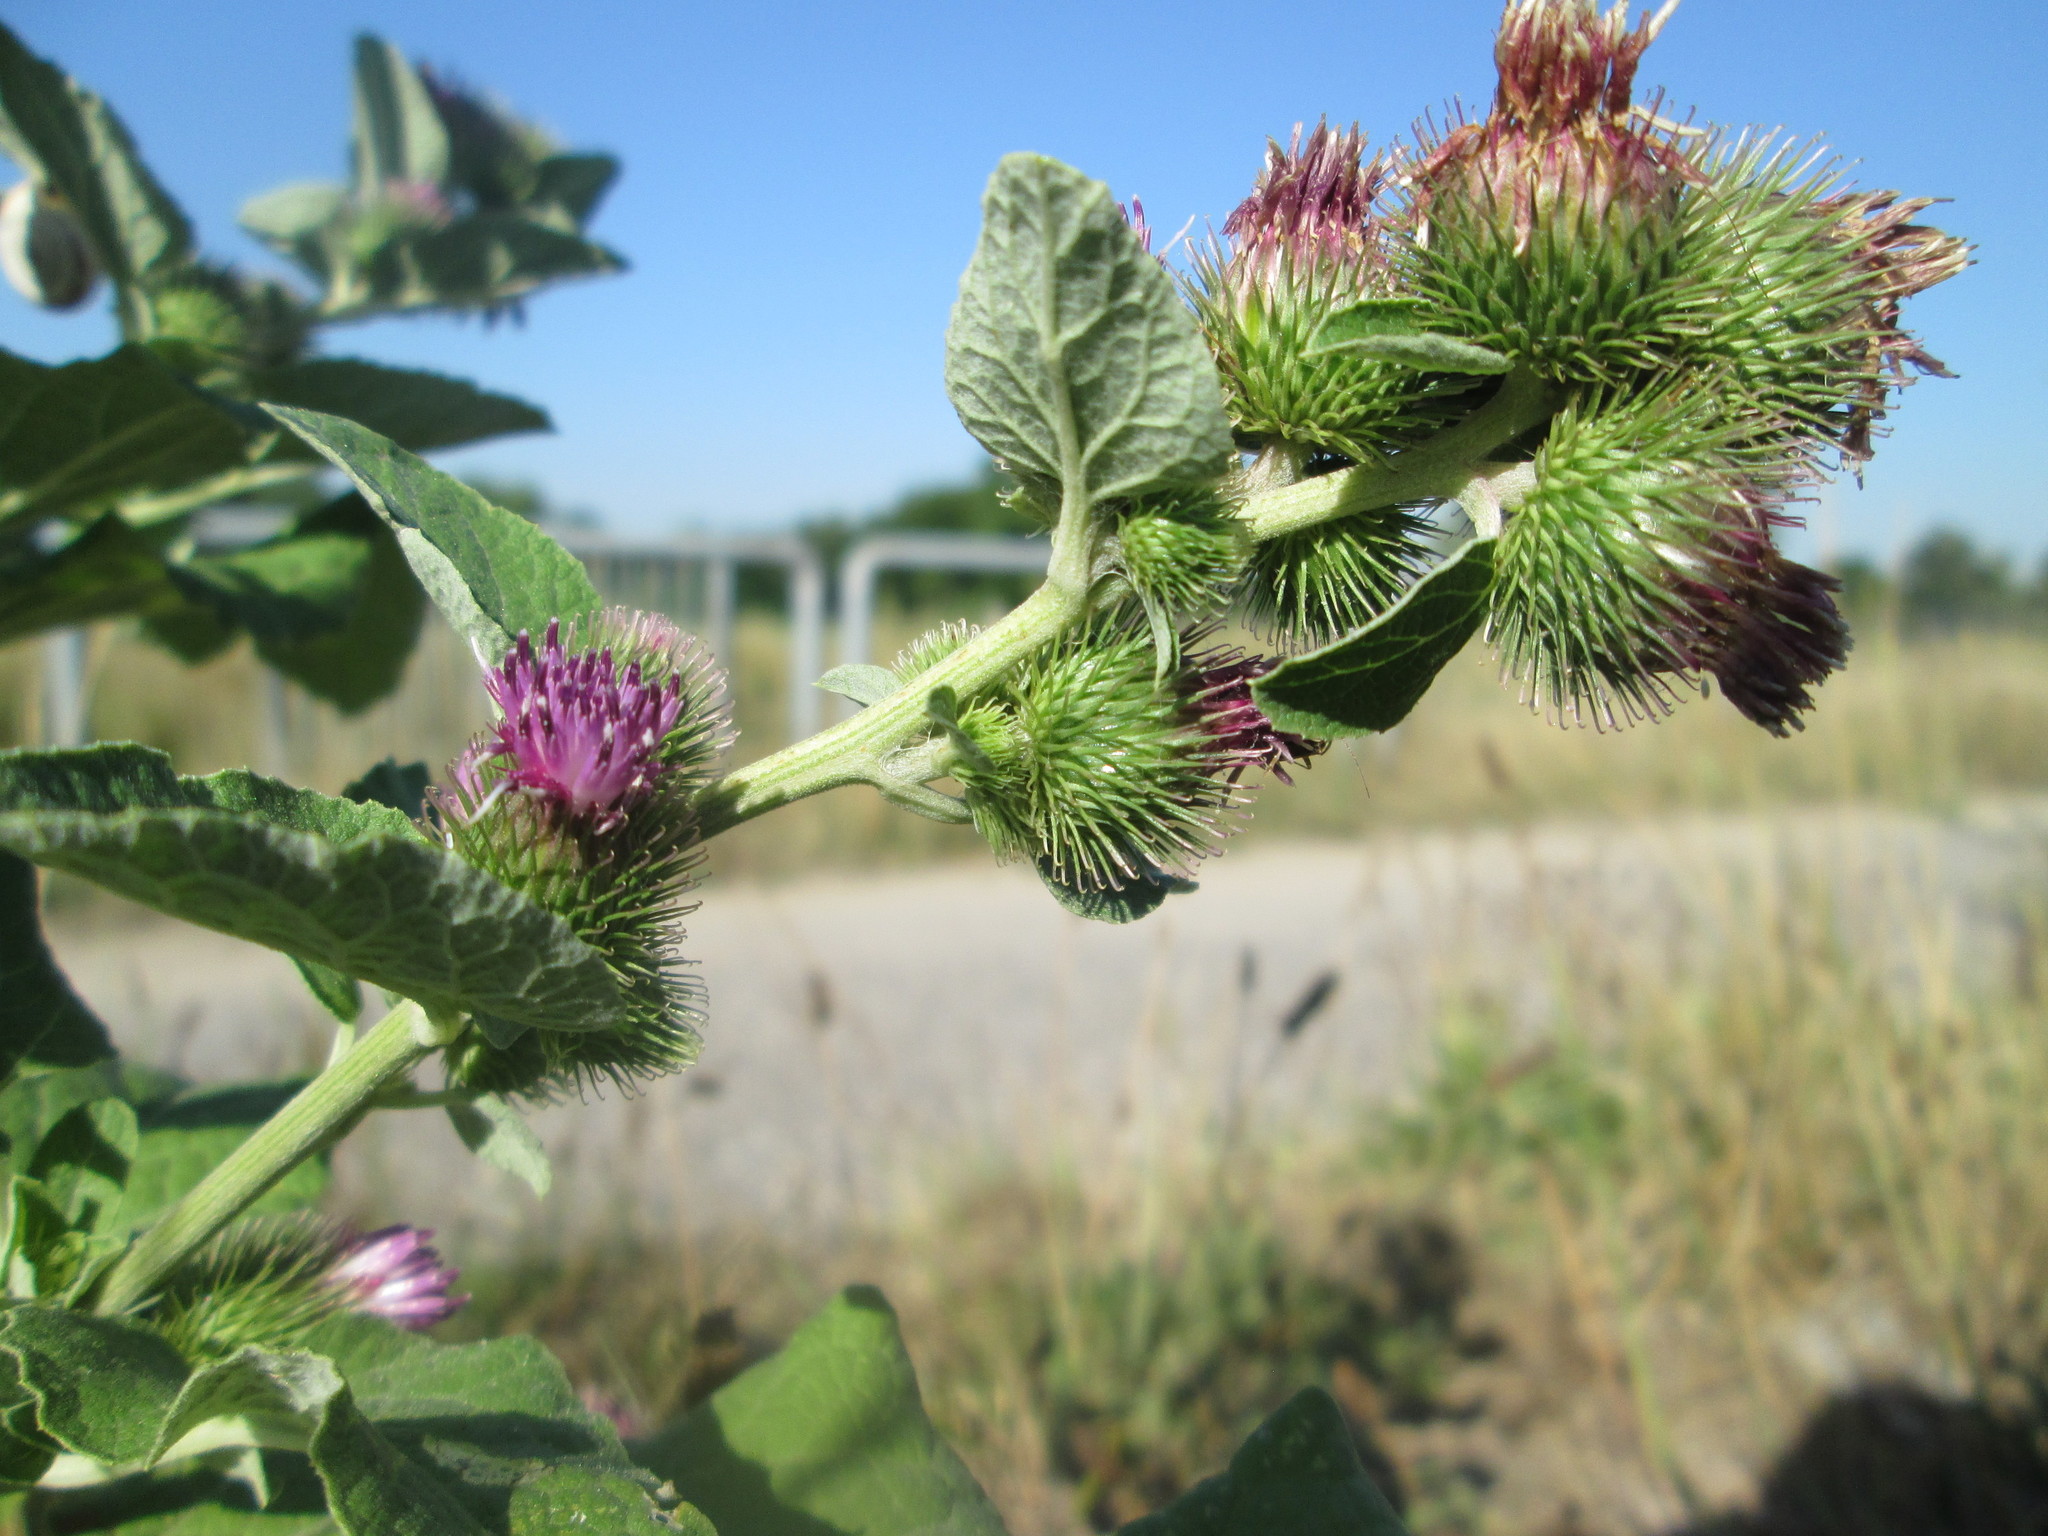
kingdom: Plantae
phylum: Tracheophyta
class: Magnoliopsida
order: Asterales
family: Asteraceae
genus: Arctium
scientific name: Arctium minus
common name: Lesser burdock
